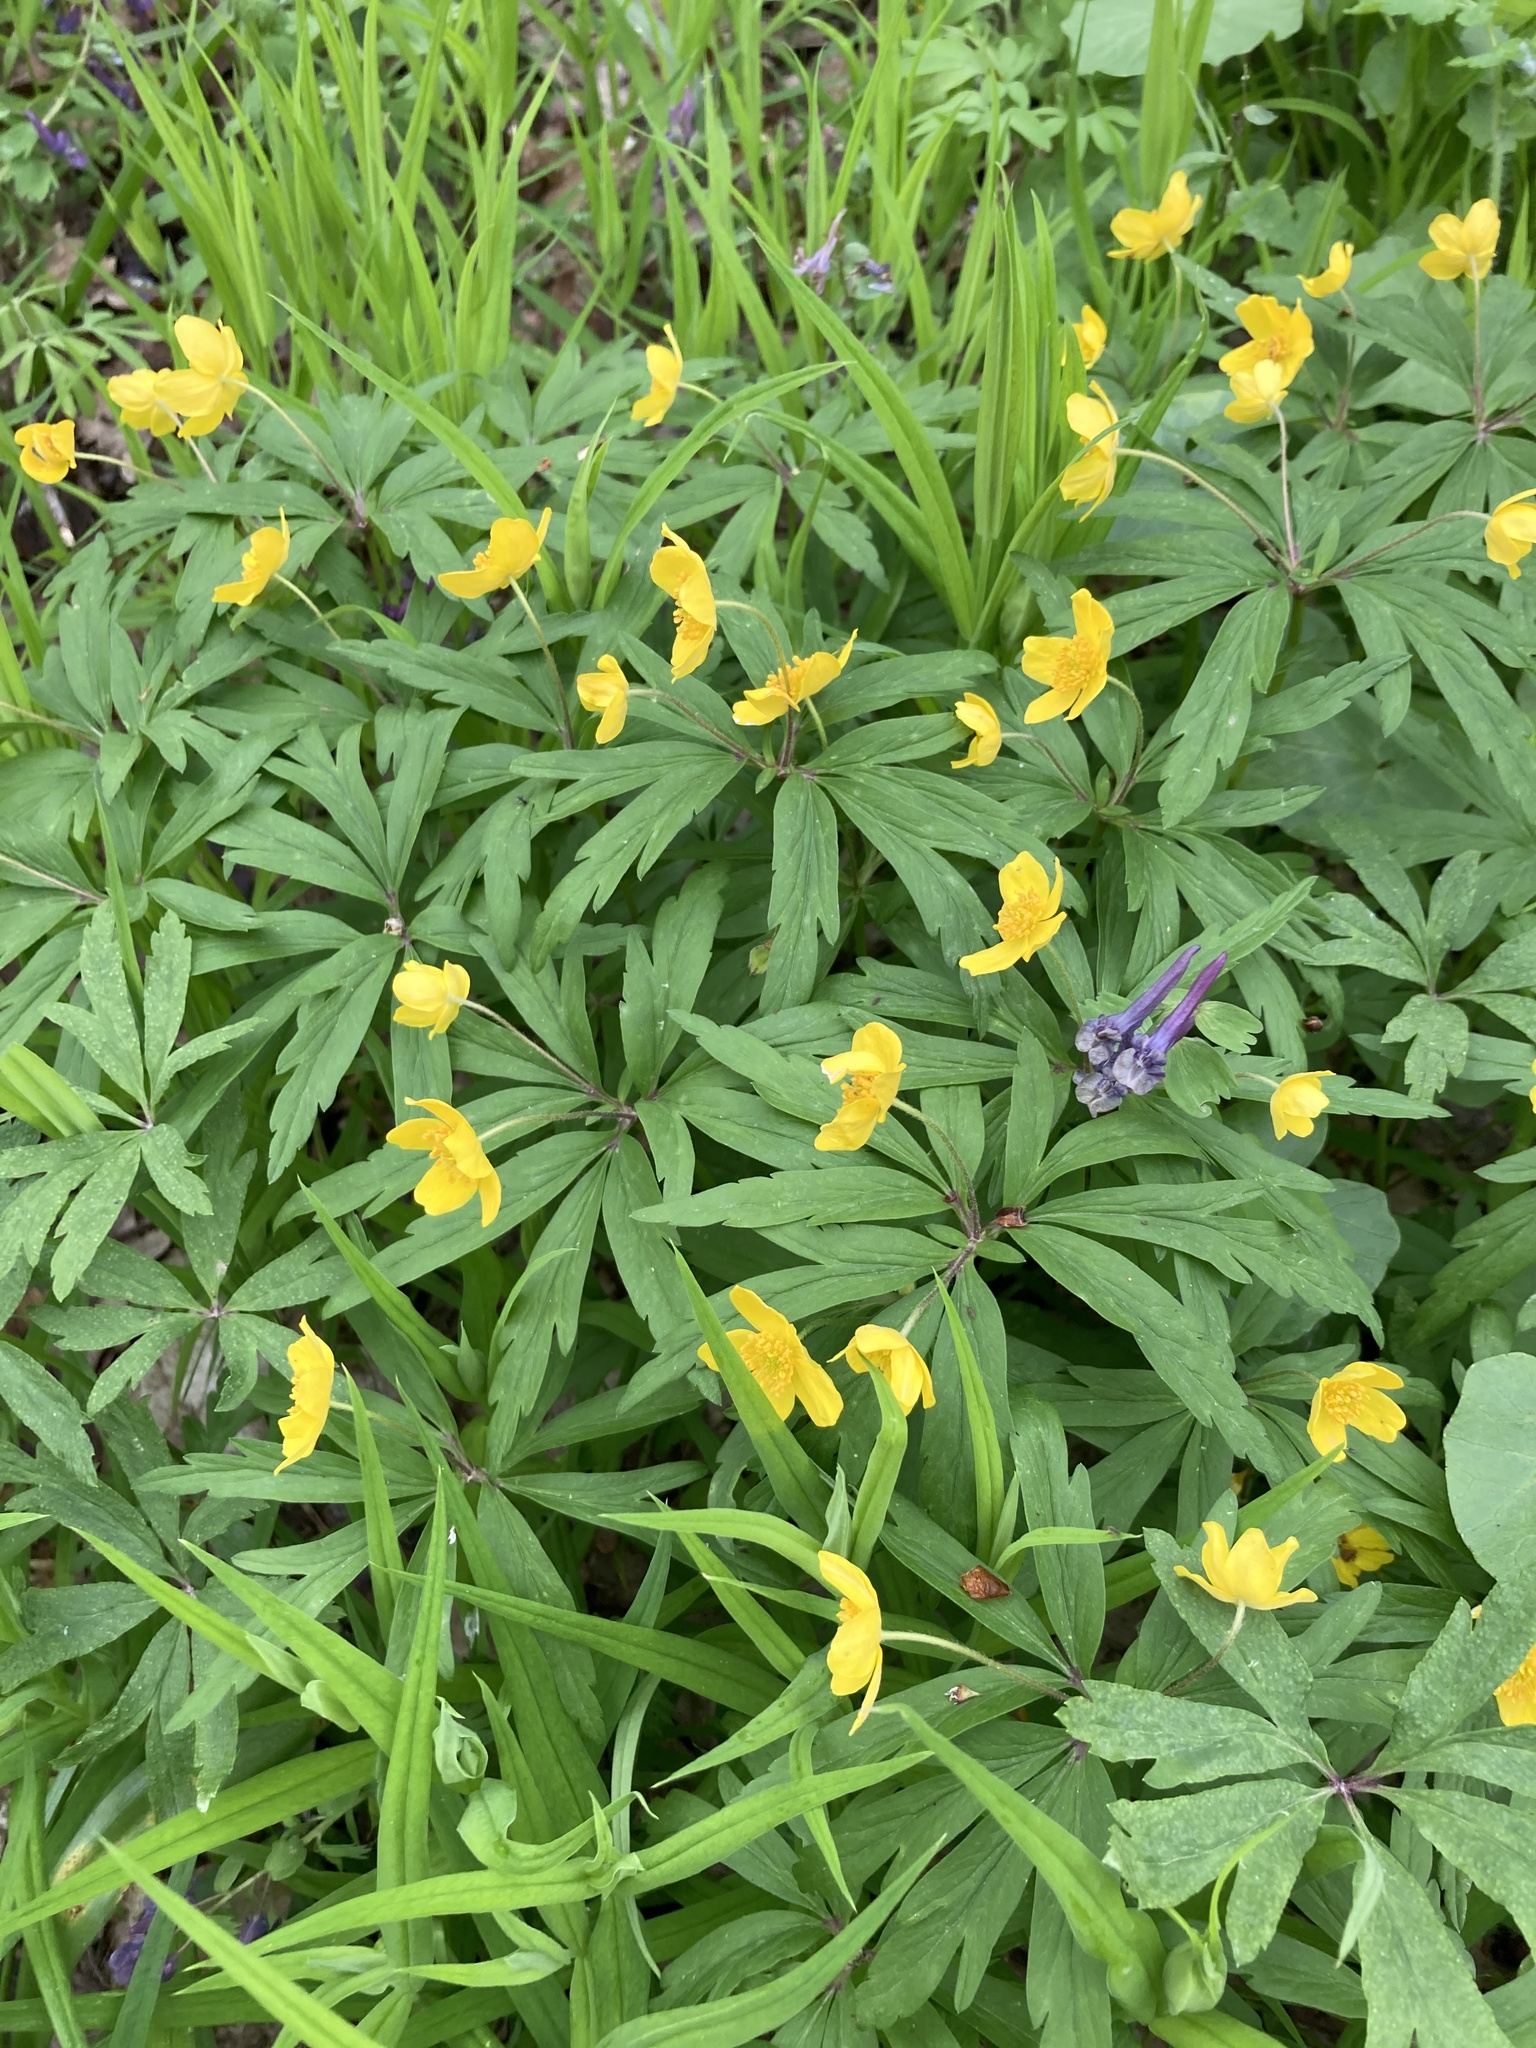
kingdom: Plantae
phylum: Tracheophyta
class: Magnoliopsida
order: Ranunculales
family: Ranunculaceae
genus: Anemone
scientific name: Anemone ranunculoides
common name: Yellow anemone
